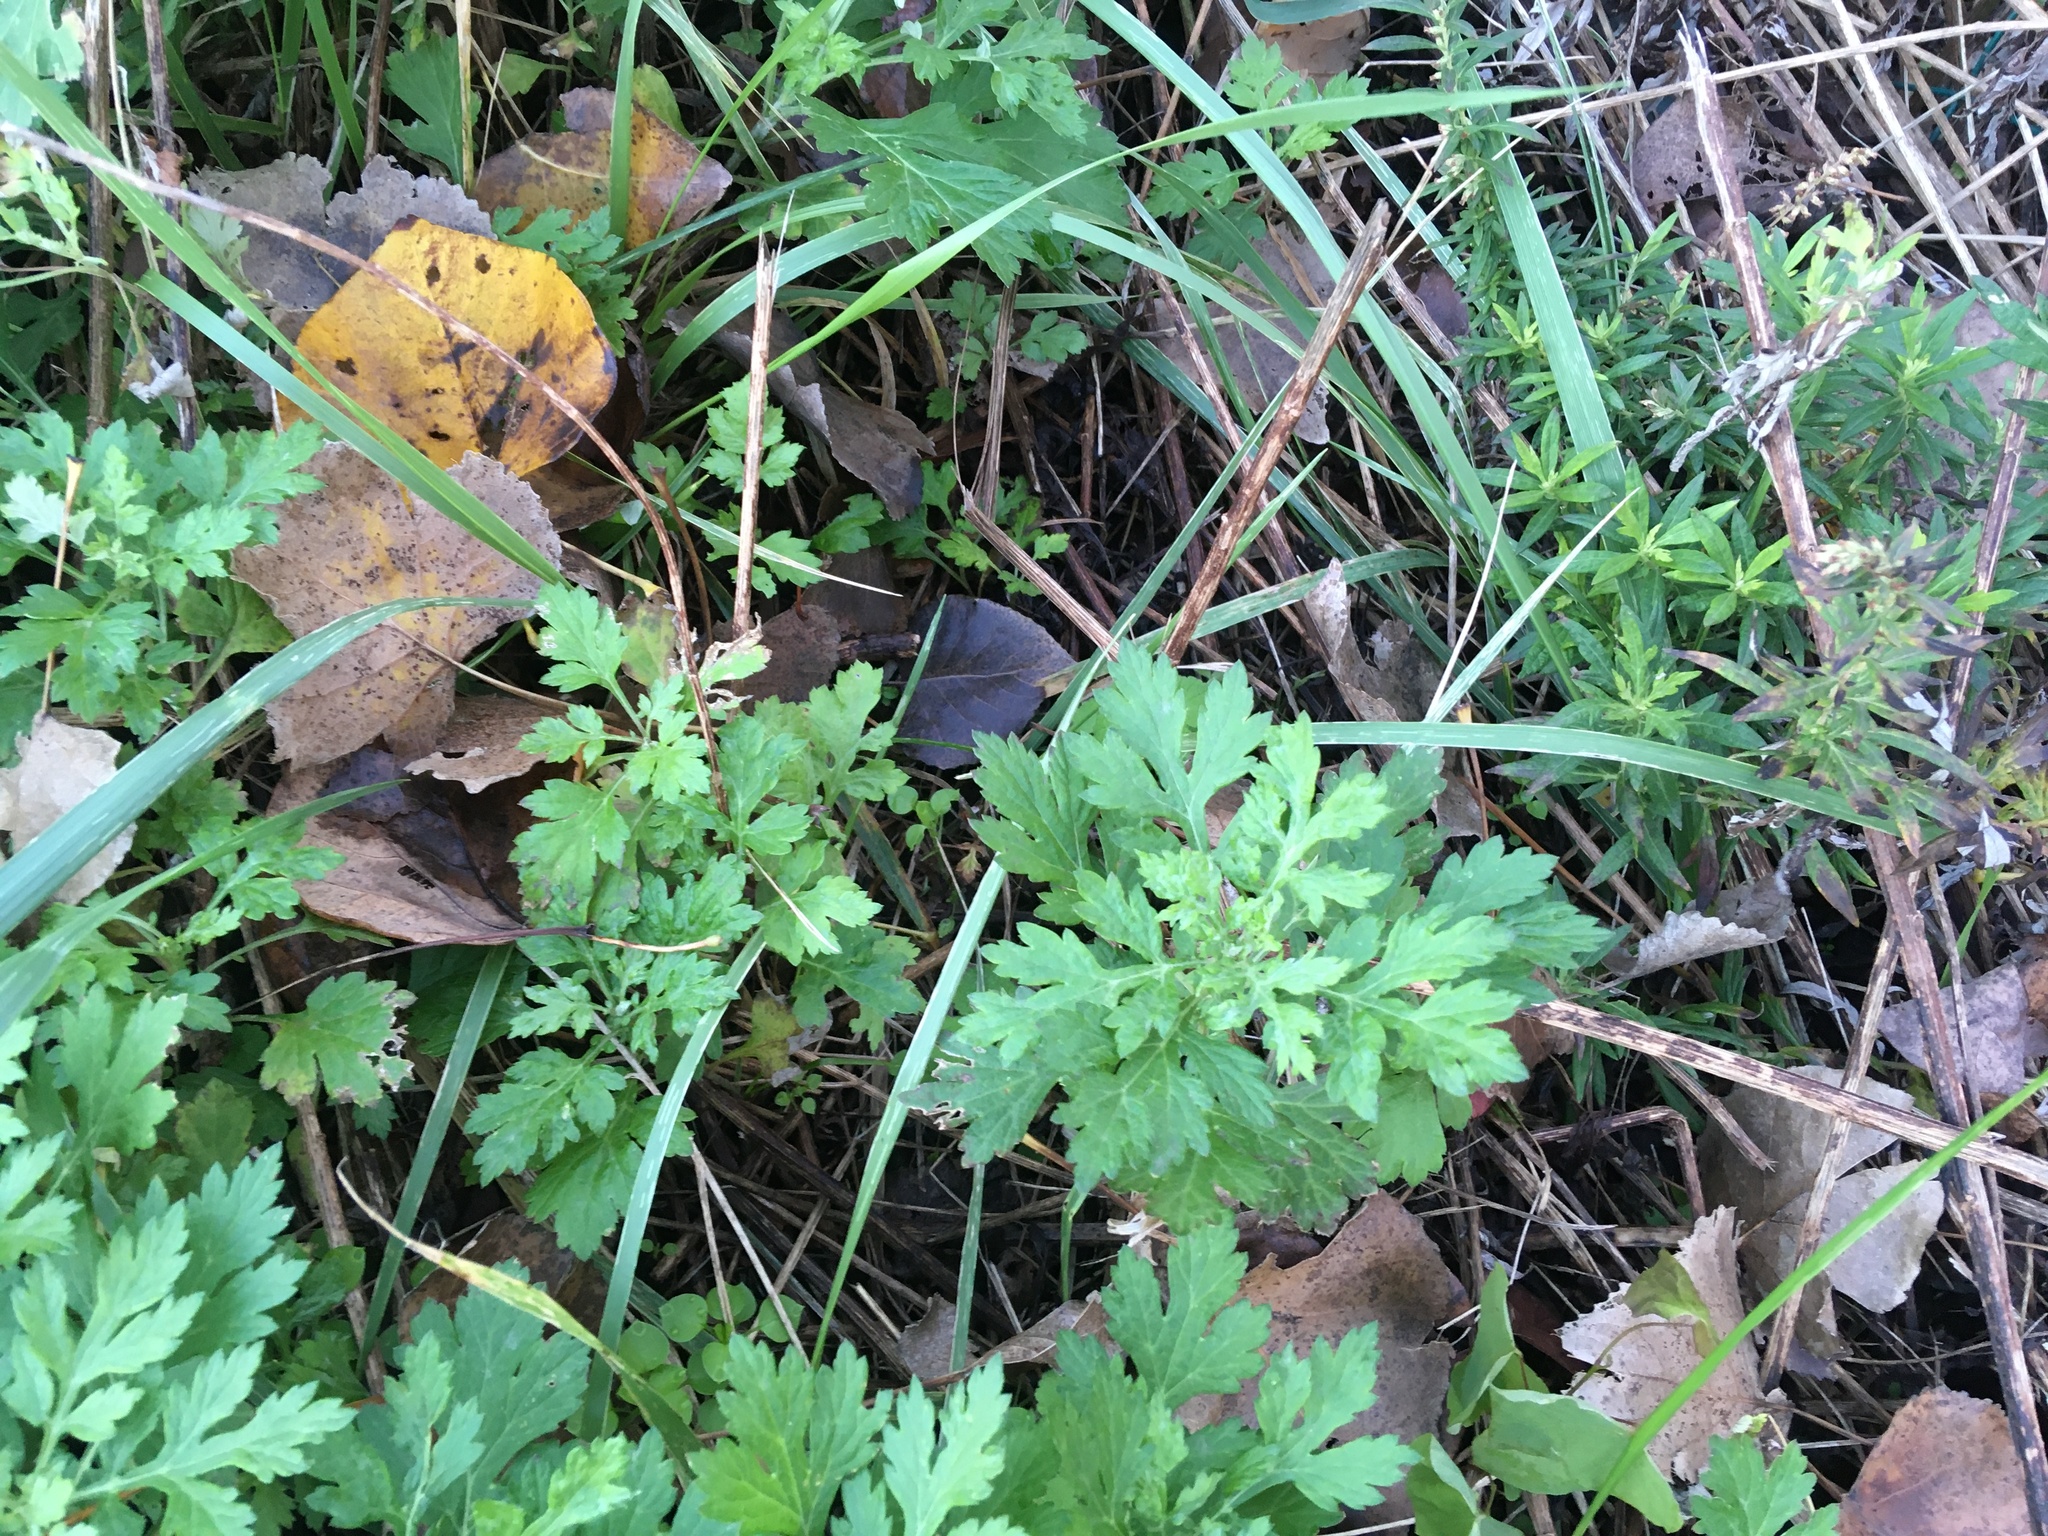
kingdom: Plantae
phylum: Tracheophyta
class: Magnoliopsida
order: Asterales
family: Asteraceae
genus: Artemisia
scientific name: Artemisia vulgaris
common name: Mugwort
